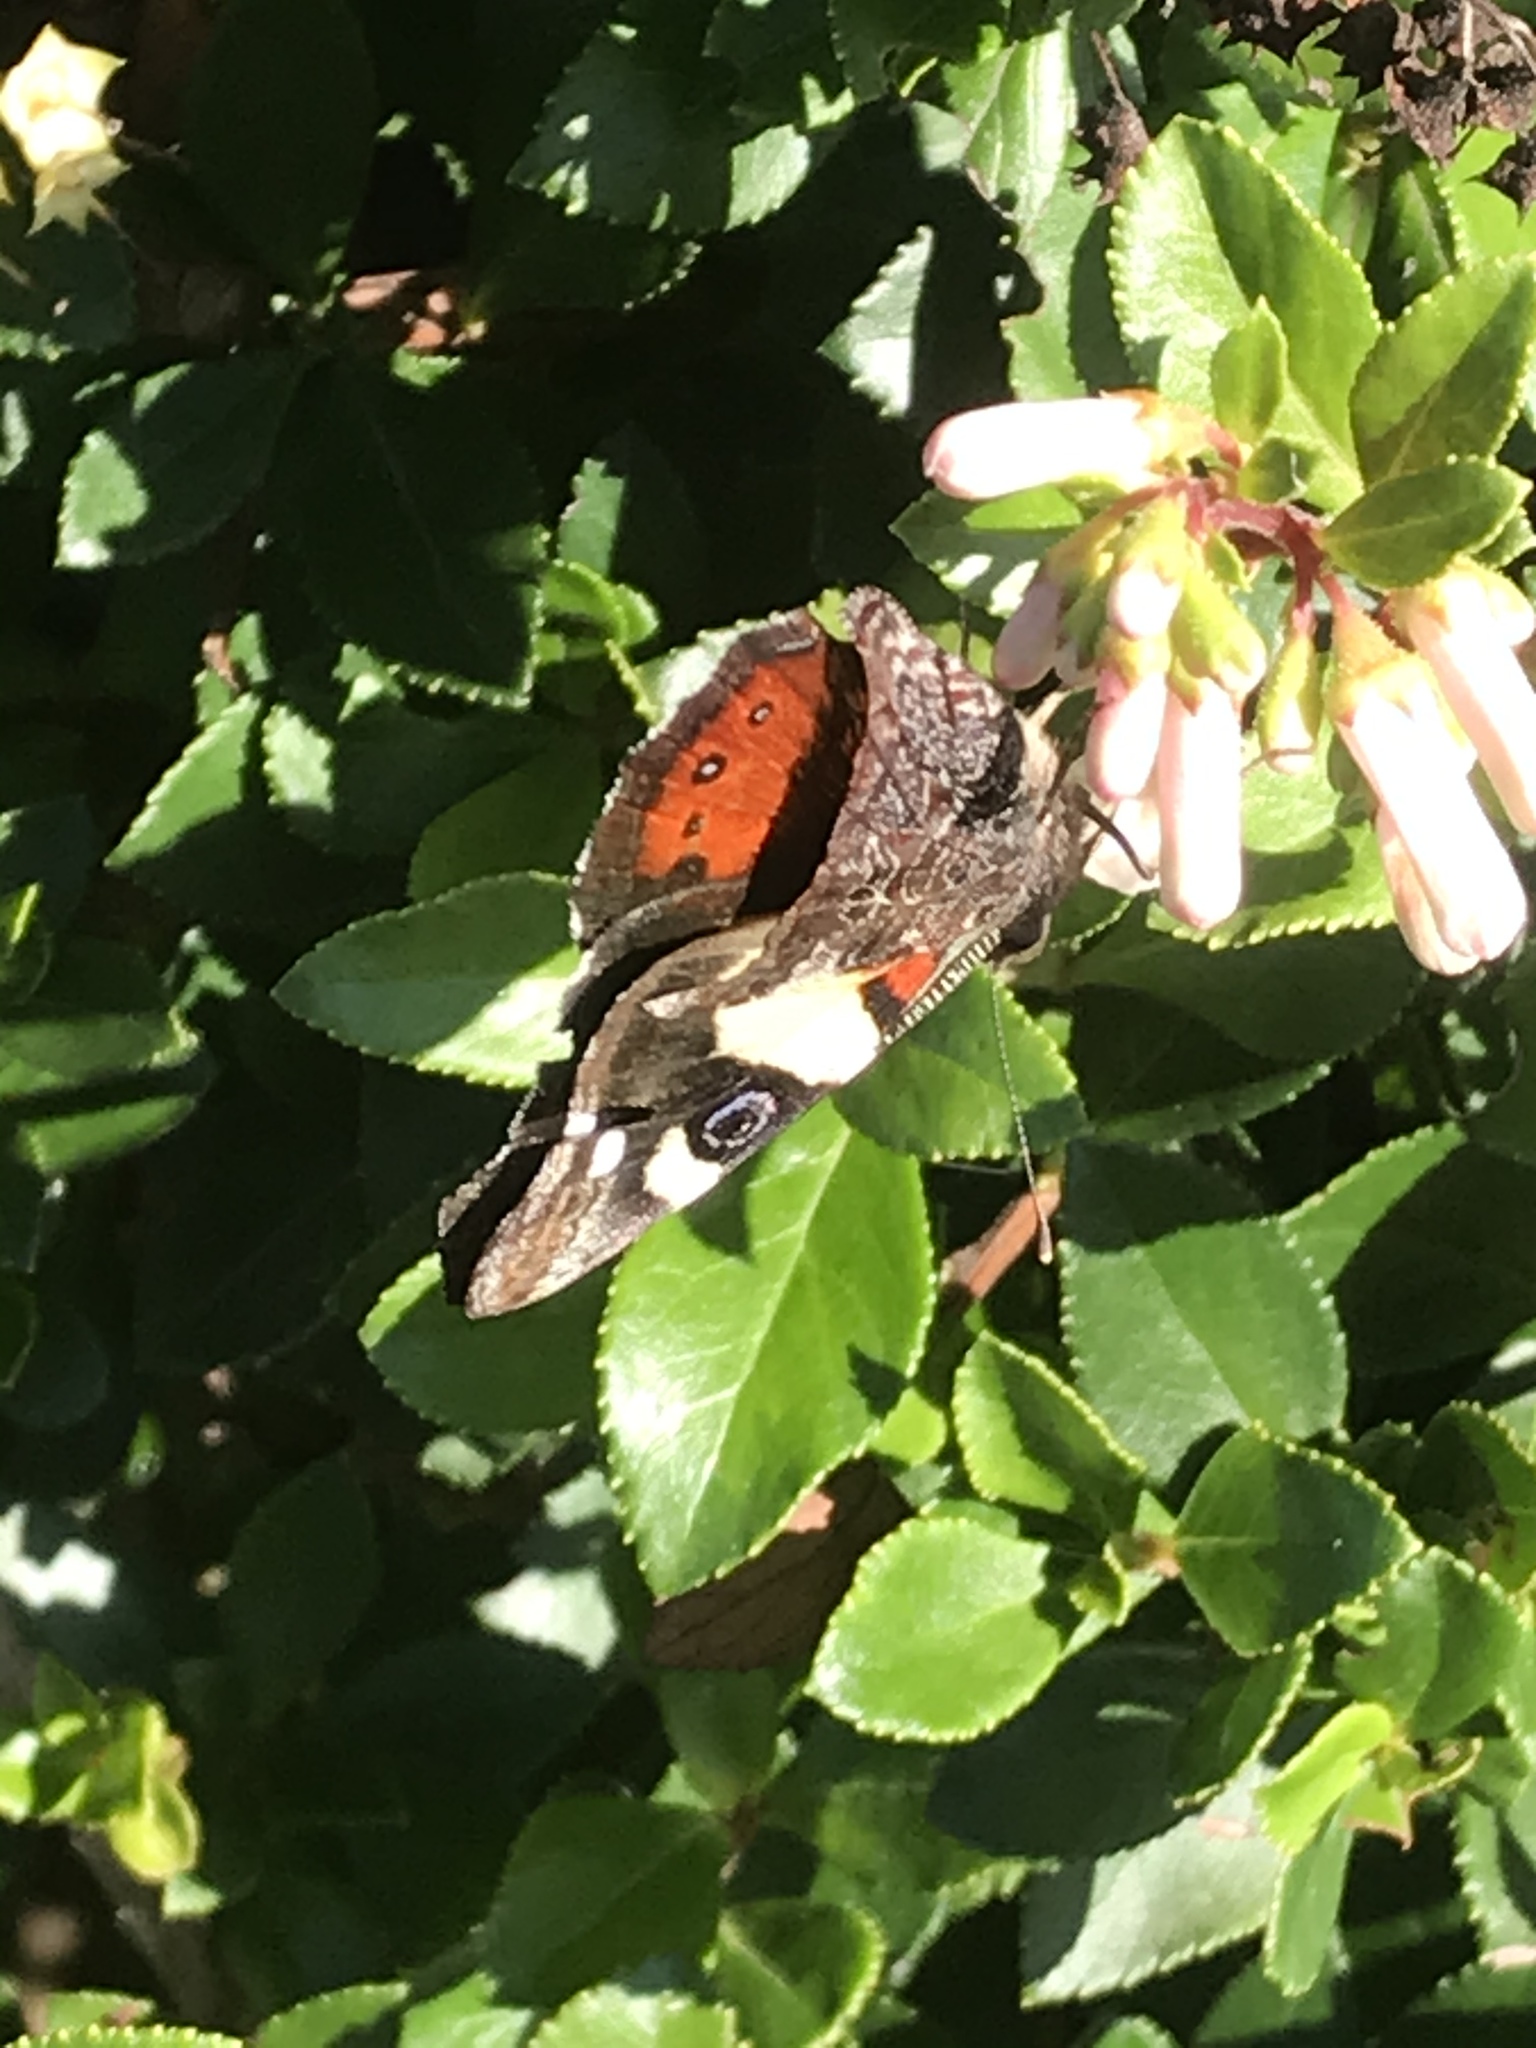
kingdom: Animalia
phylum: Arthropoda
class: Insecta
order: Lepidoptera
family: Nymphalidae
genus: Vanessa
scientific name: Vanessa itea
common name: Yellow admiral
